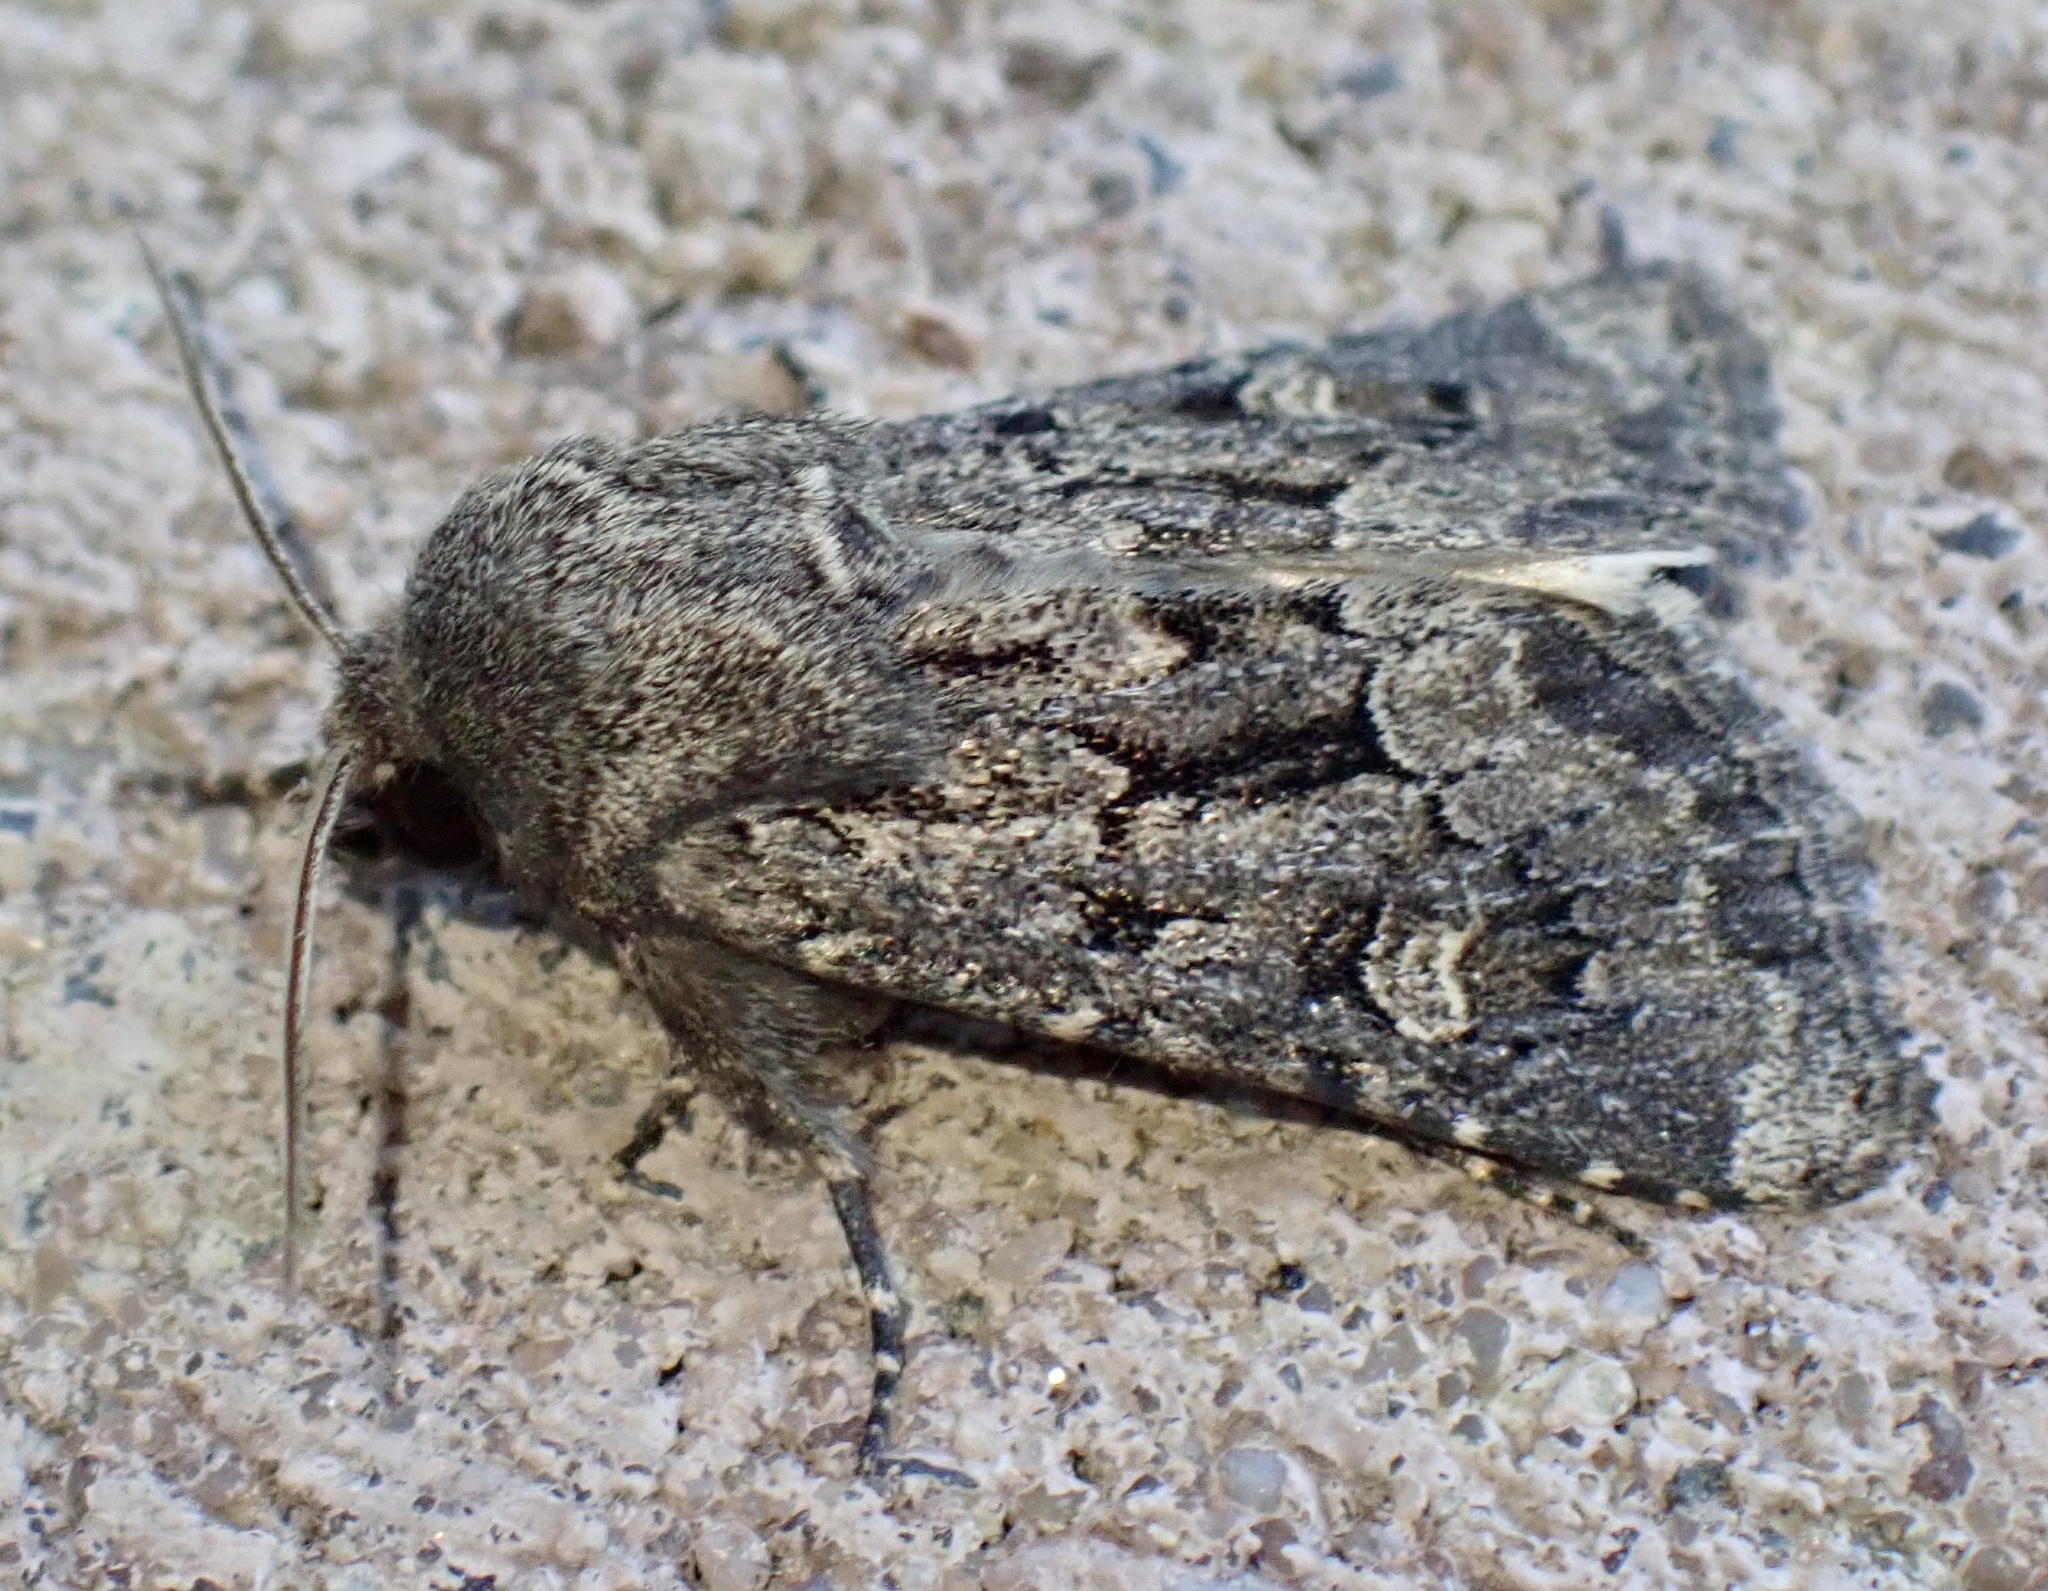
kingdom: Animalia
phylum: Arthropoda
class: Insecta
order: Lepidoptera
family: Noctuidae
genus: Luperina
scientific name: Luperina testacea
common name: Flounced rustic
